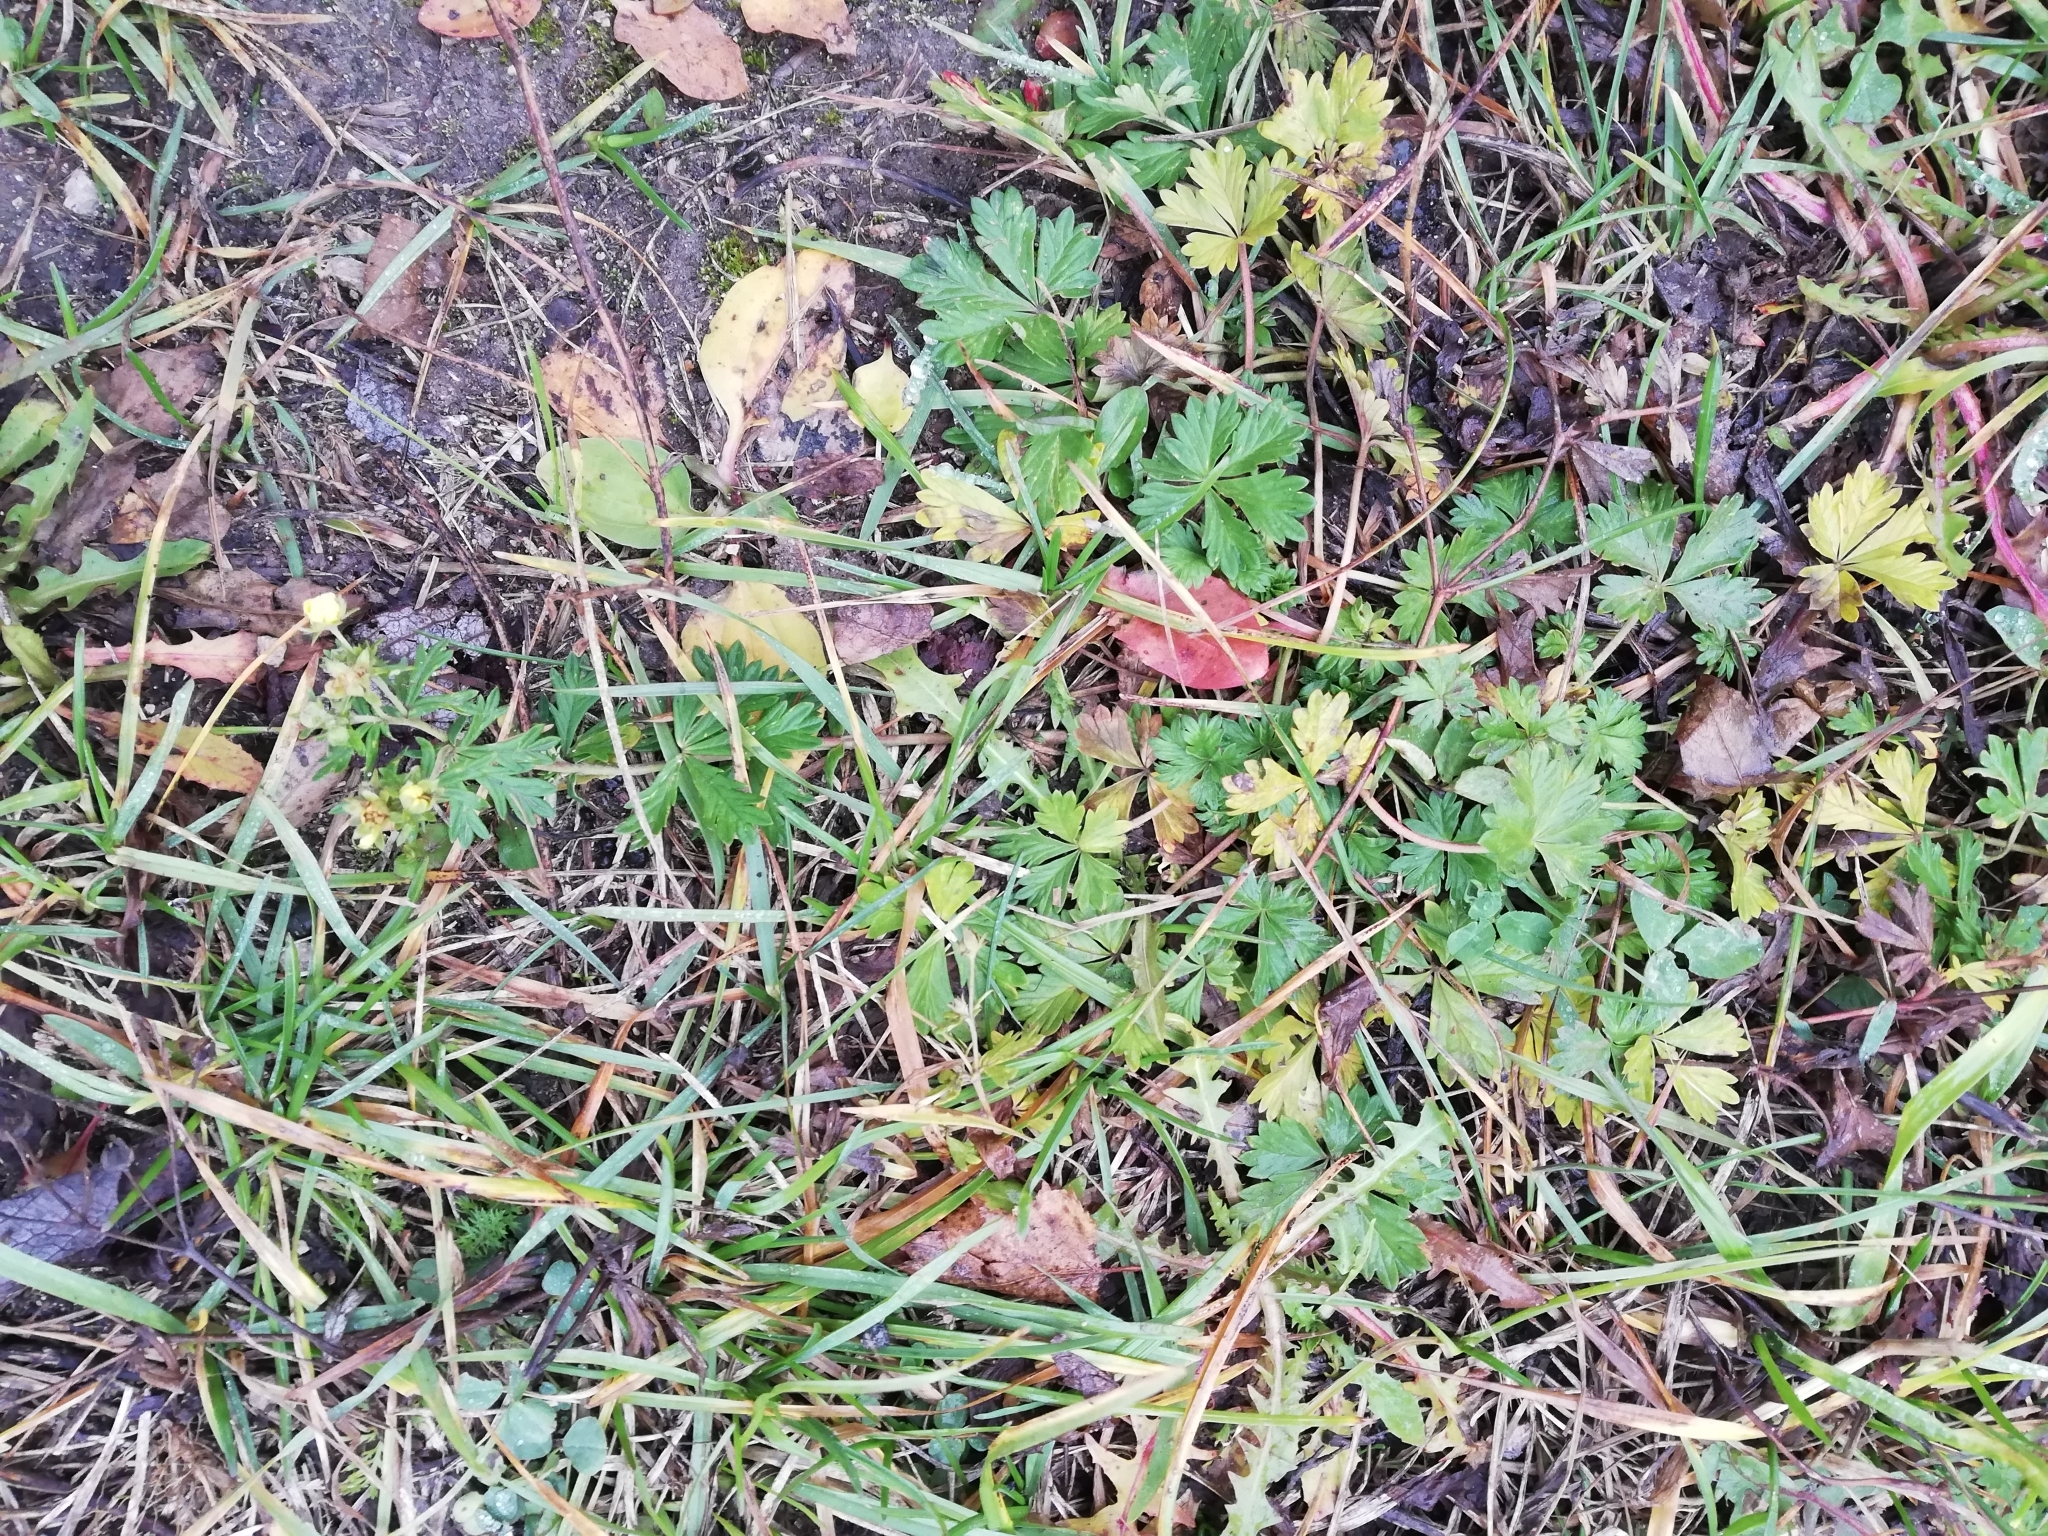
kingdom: Plantae
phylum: Tracheophyta
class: Magnoliopsida
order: Rosales
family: Rosaceae
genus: Potentilla
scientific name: Potentilla argentea
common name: Hoary cinquefoil
